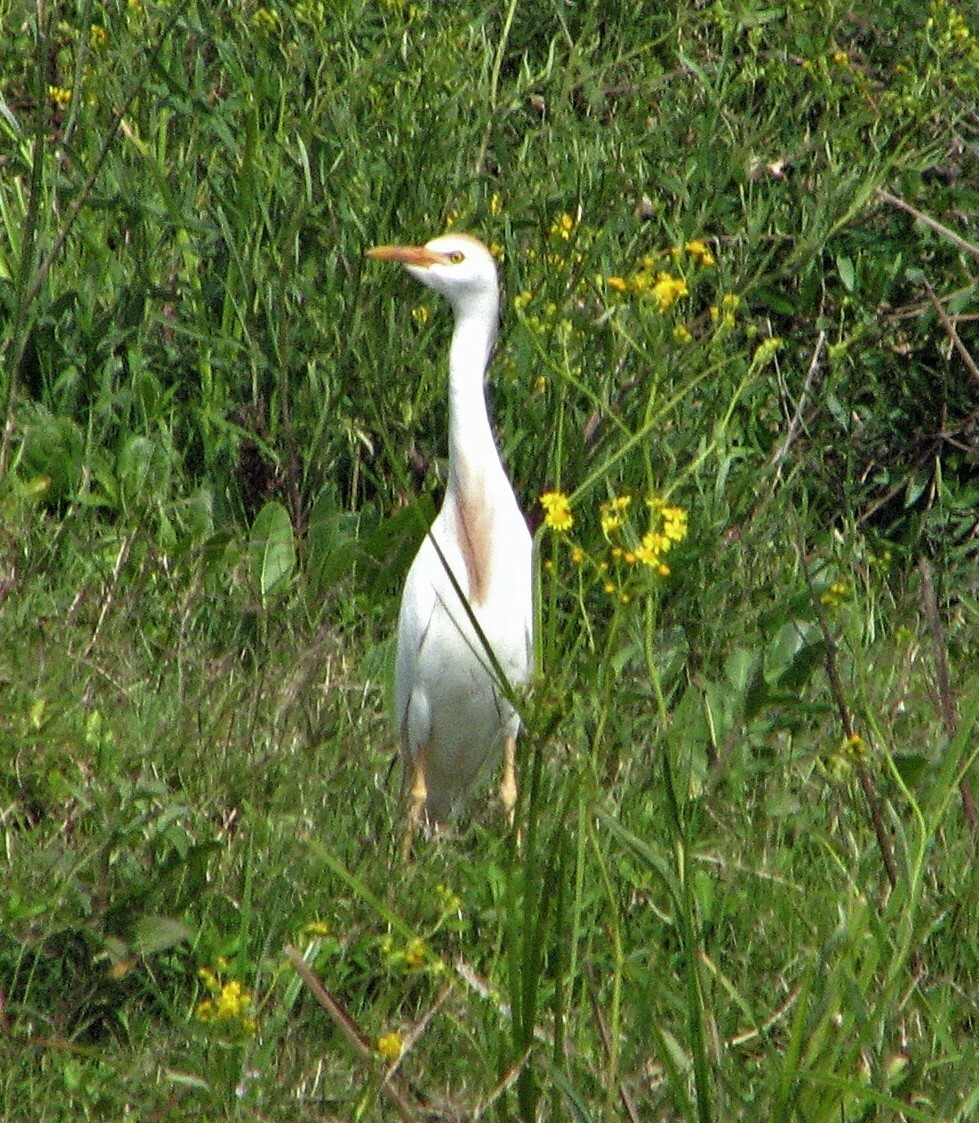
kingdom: Animalia
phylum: Chordata
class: Aves
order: Pelecaniformes
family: Ardeidae
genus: Bubulcus
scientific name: Bubulcus ibis
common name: Cattle egret
